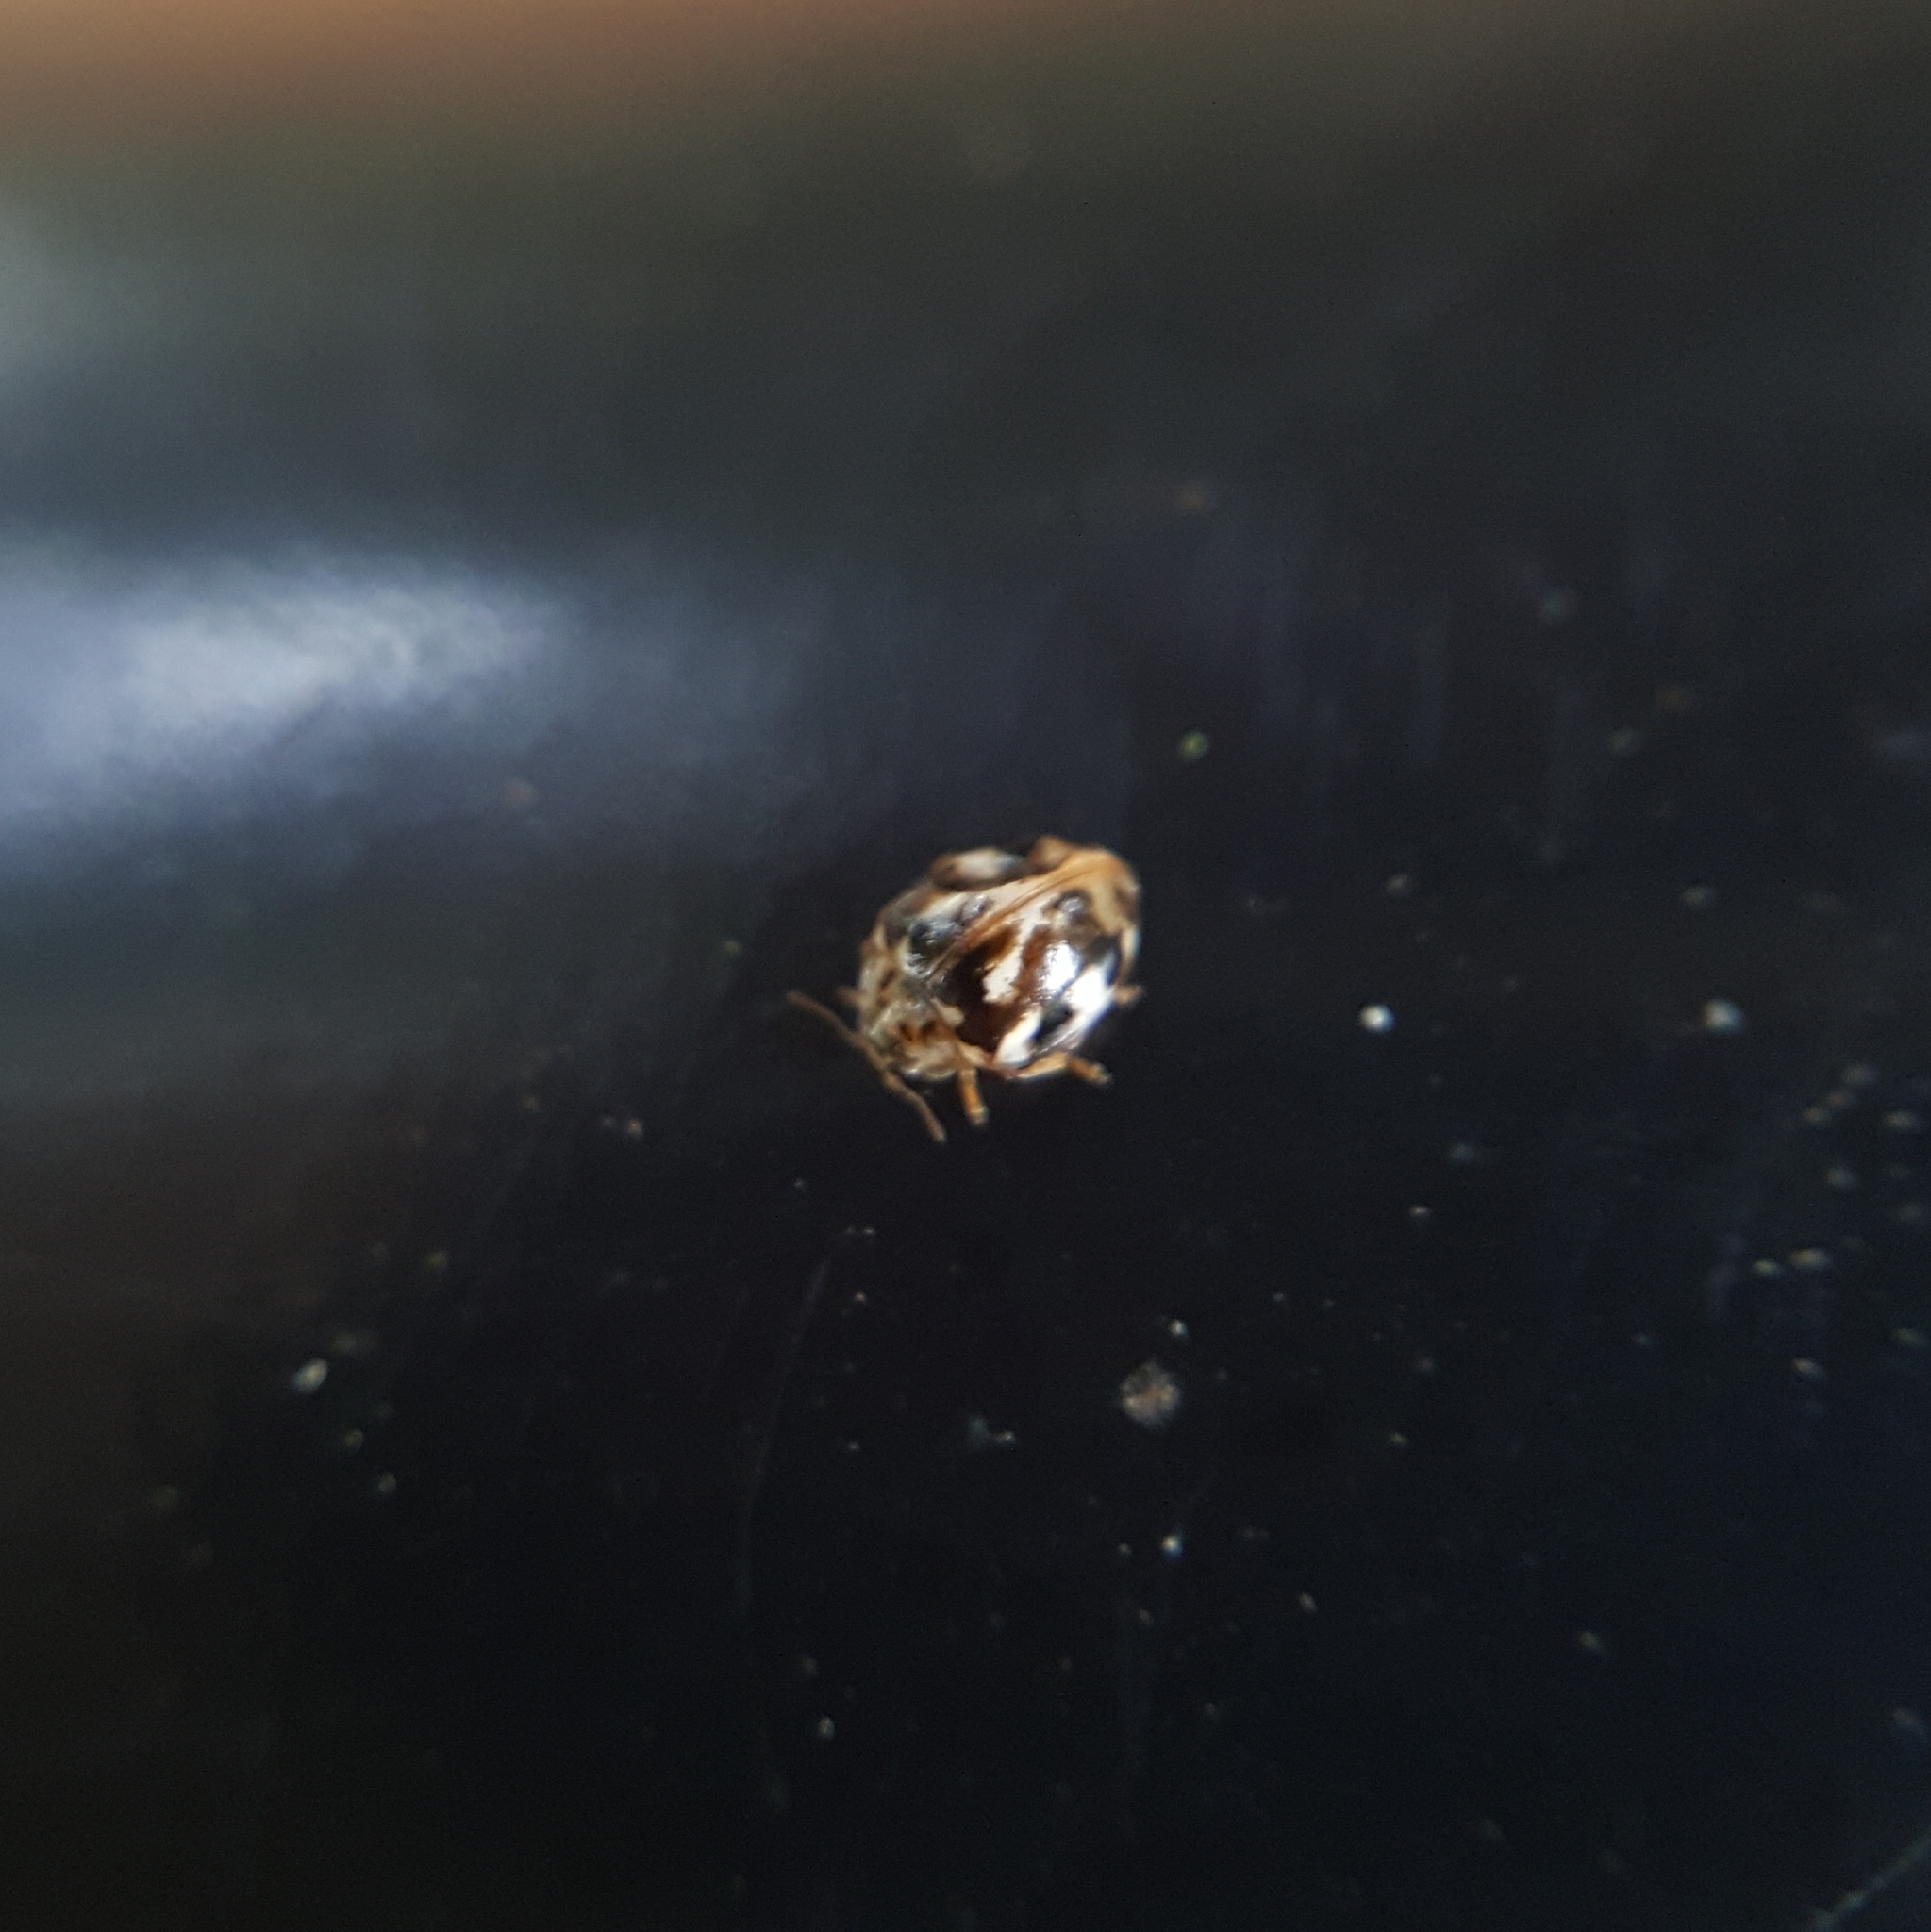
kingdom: Animalia
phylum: Arthropoda
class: Insecta
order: Coleoptera
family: Coccinellidae
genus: Psyllobora
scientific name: Psyllobora vigintimaculata
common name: Ladybird beetle
